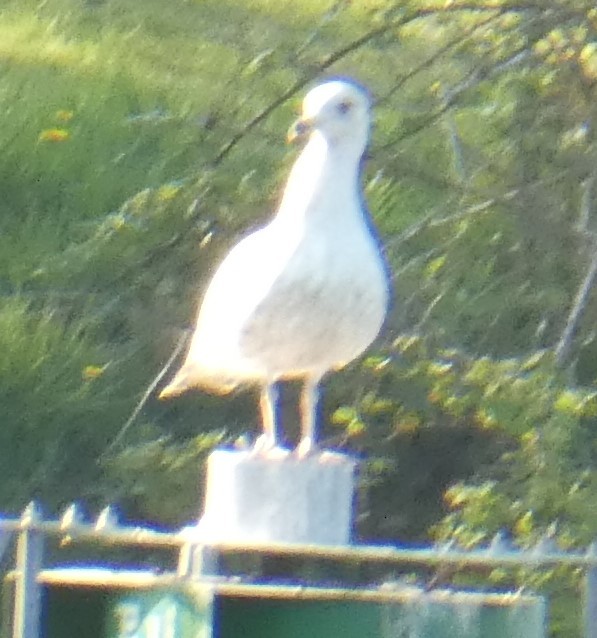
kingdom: Animalia
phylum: Chordata
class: Aves
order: Charadriiformes
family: Laridae
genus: Larus
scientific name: Larus argentatus
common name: Herring gull
